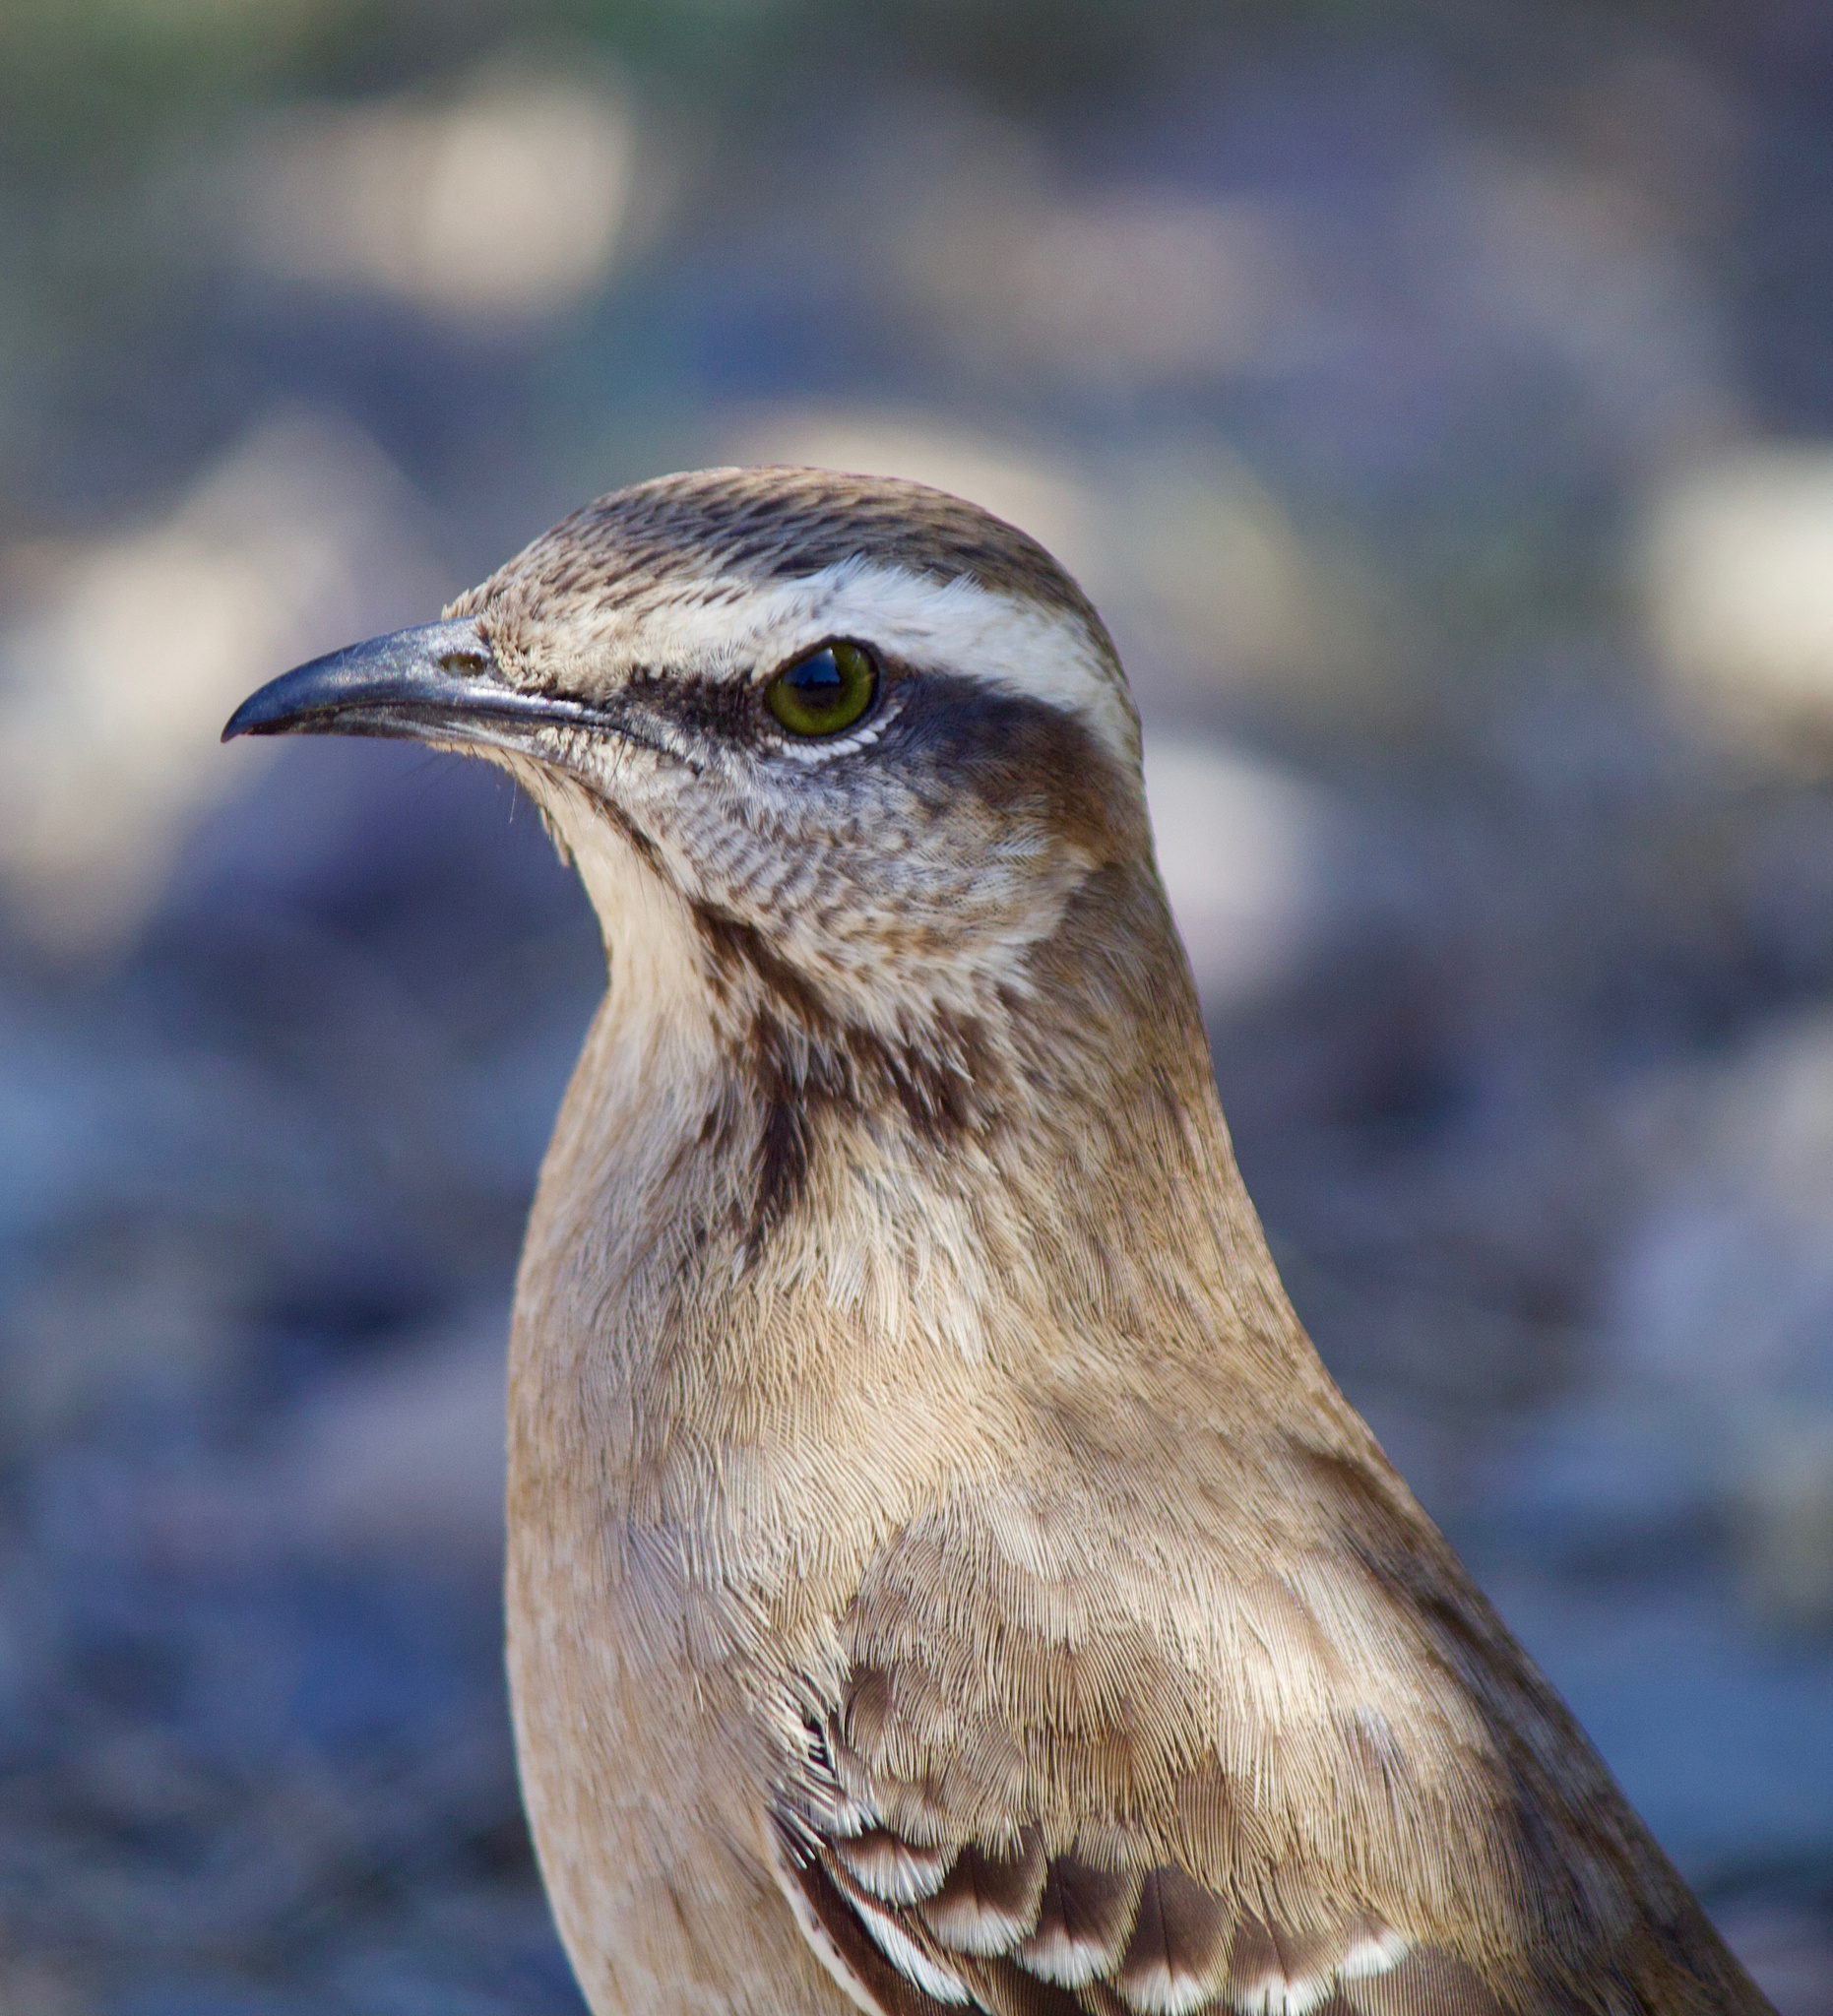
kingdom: Animalia
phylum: Chordata
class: Aves
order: Passeriformes
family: Mimidae
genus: Mimus
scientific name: Mimus thenca
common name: Chilean mockingbird
